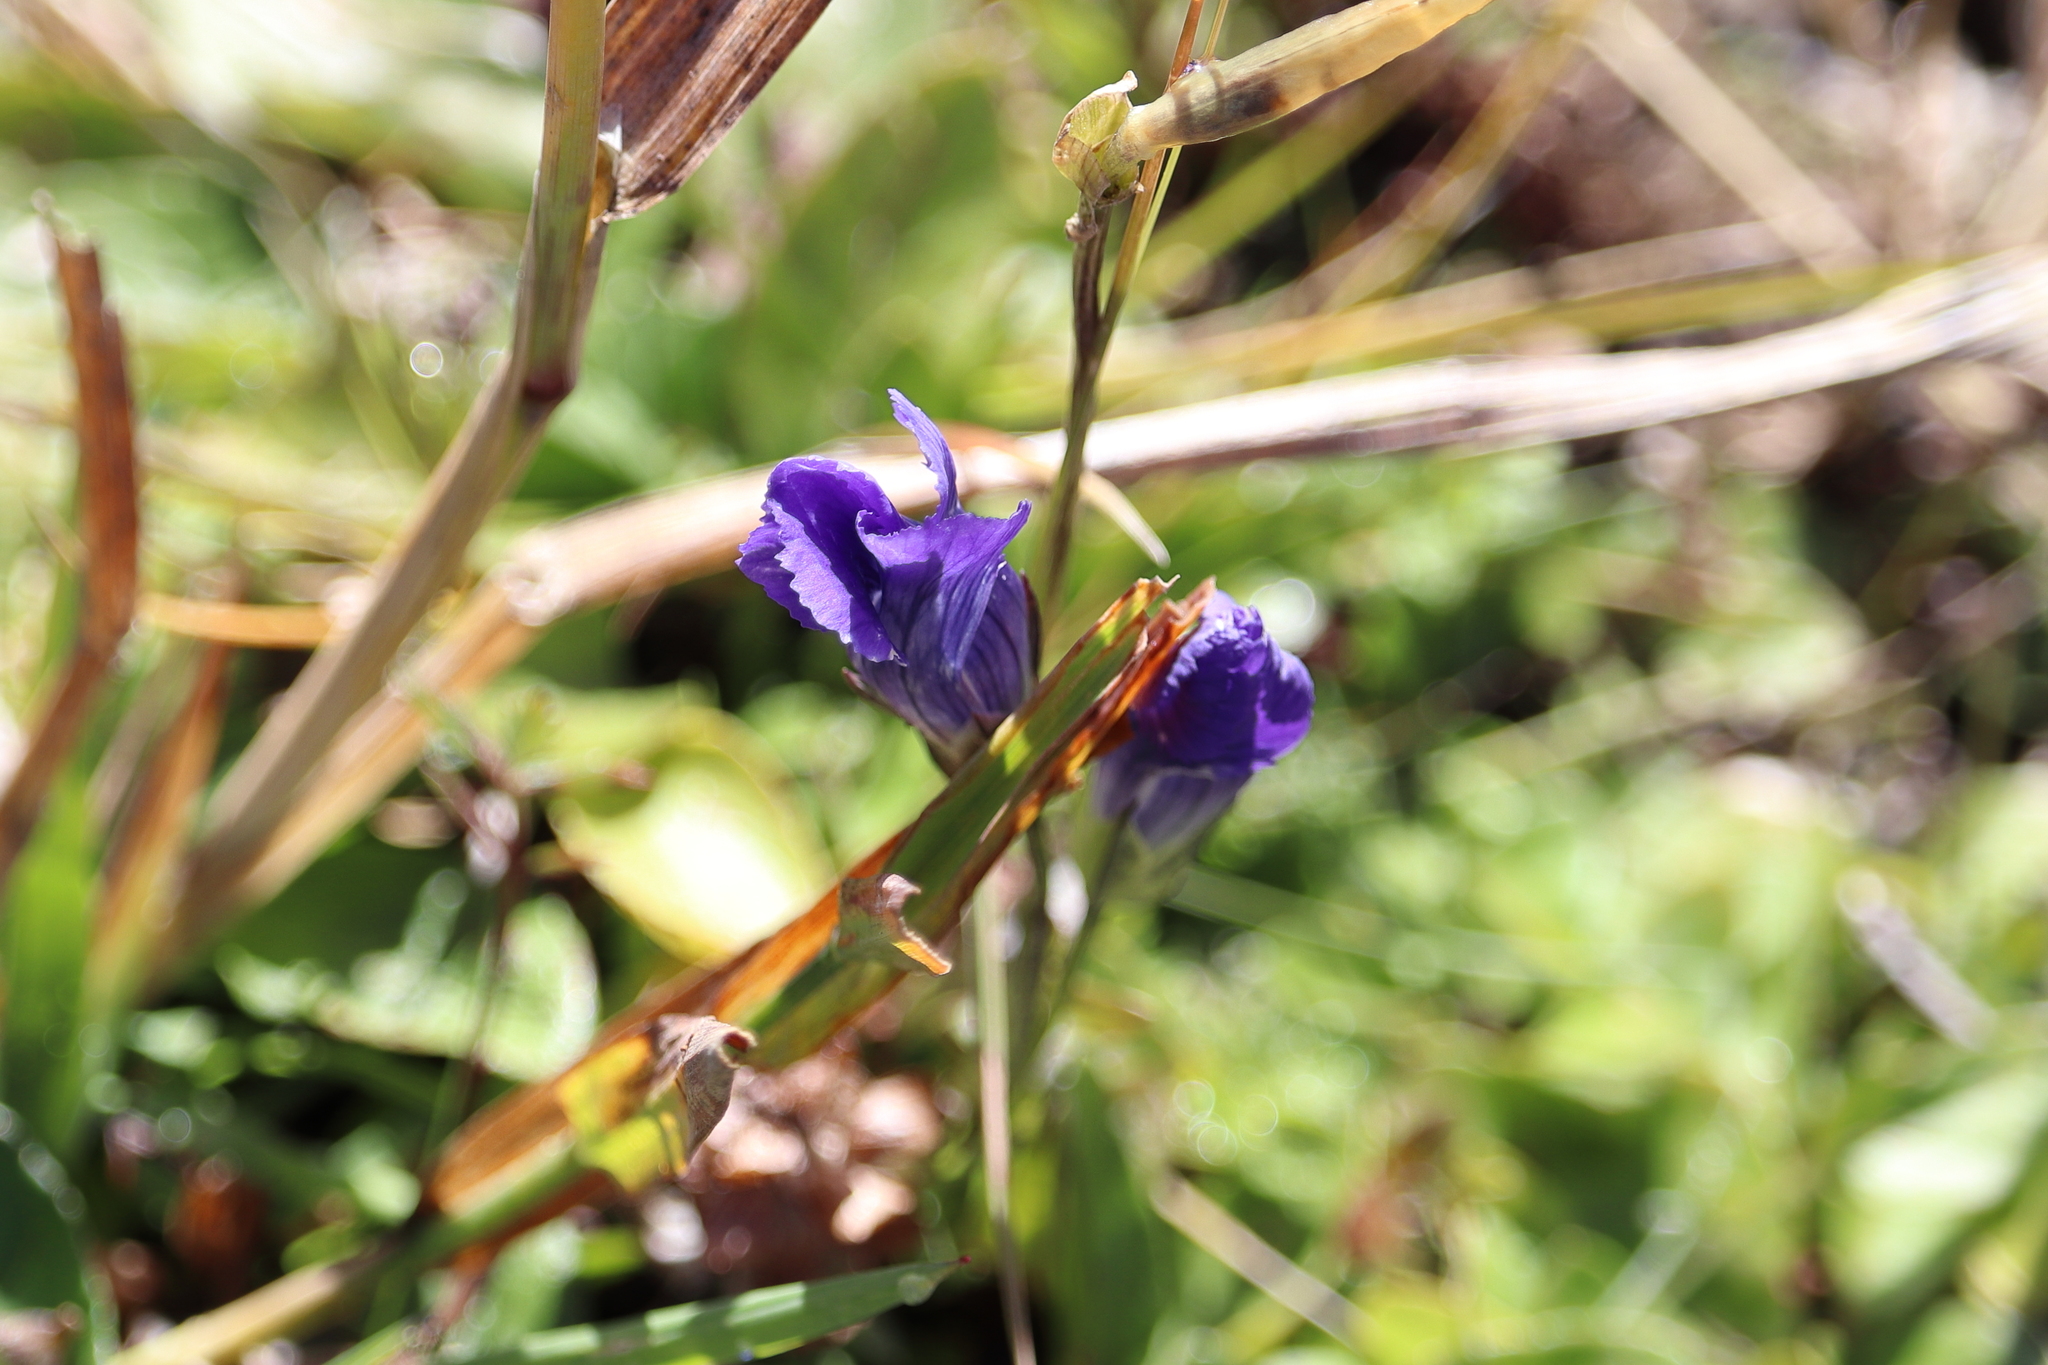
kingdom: Plantae
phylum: Tracheophyta
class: Magnoliopsida
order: Gentianales
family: Gentianaceae
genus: Gentianopsis
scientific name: Gentianopsis thermalis
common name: Rocky mountain fringed-gentian
